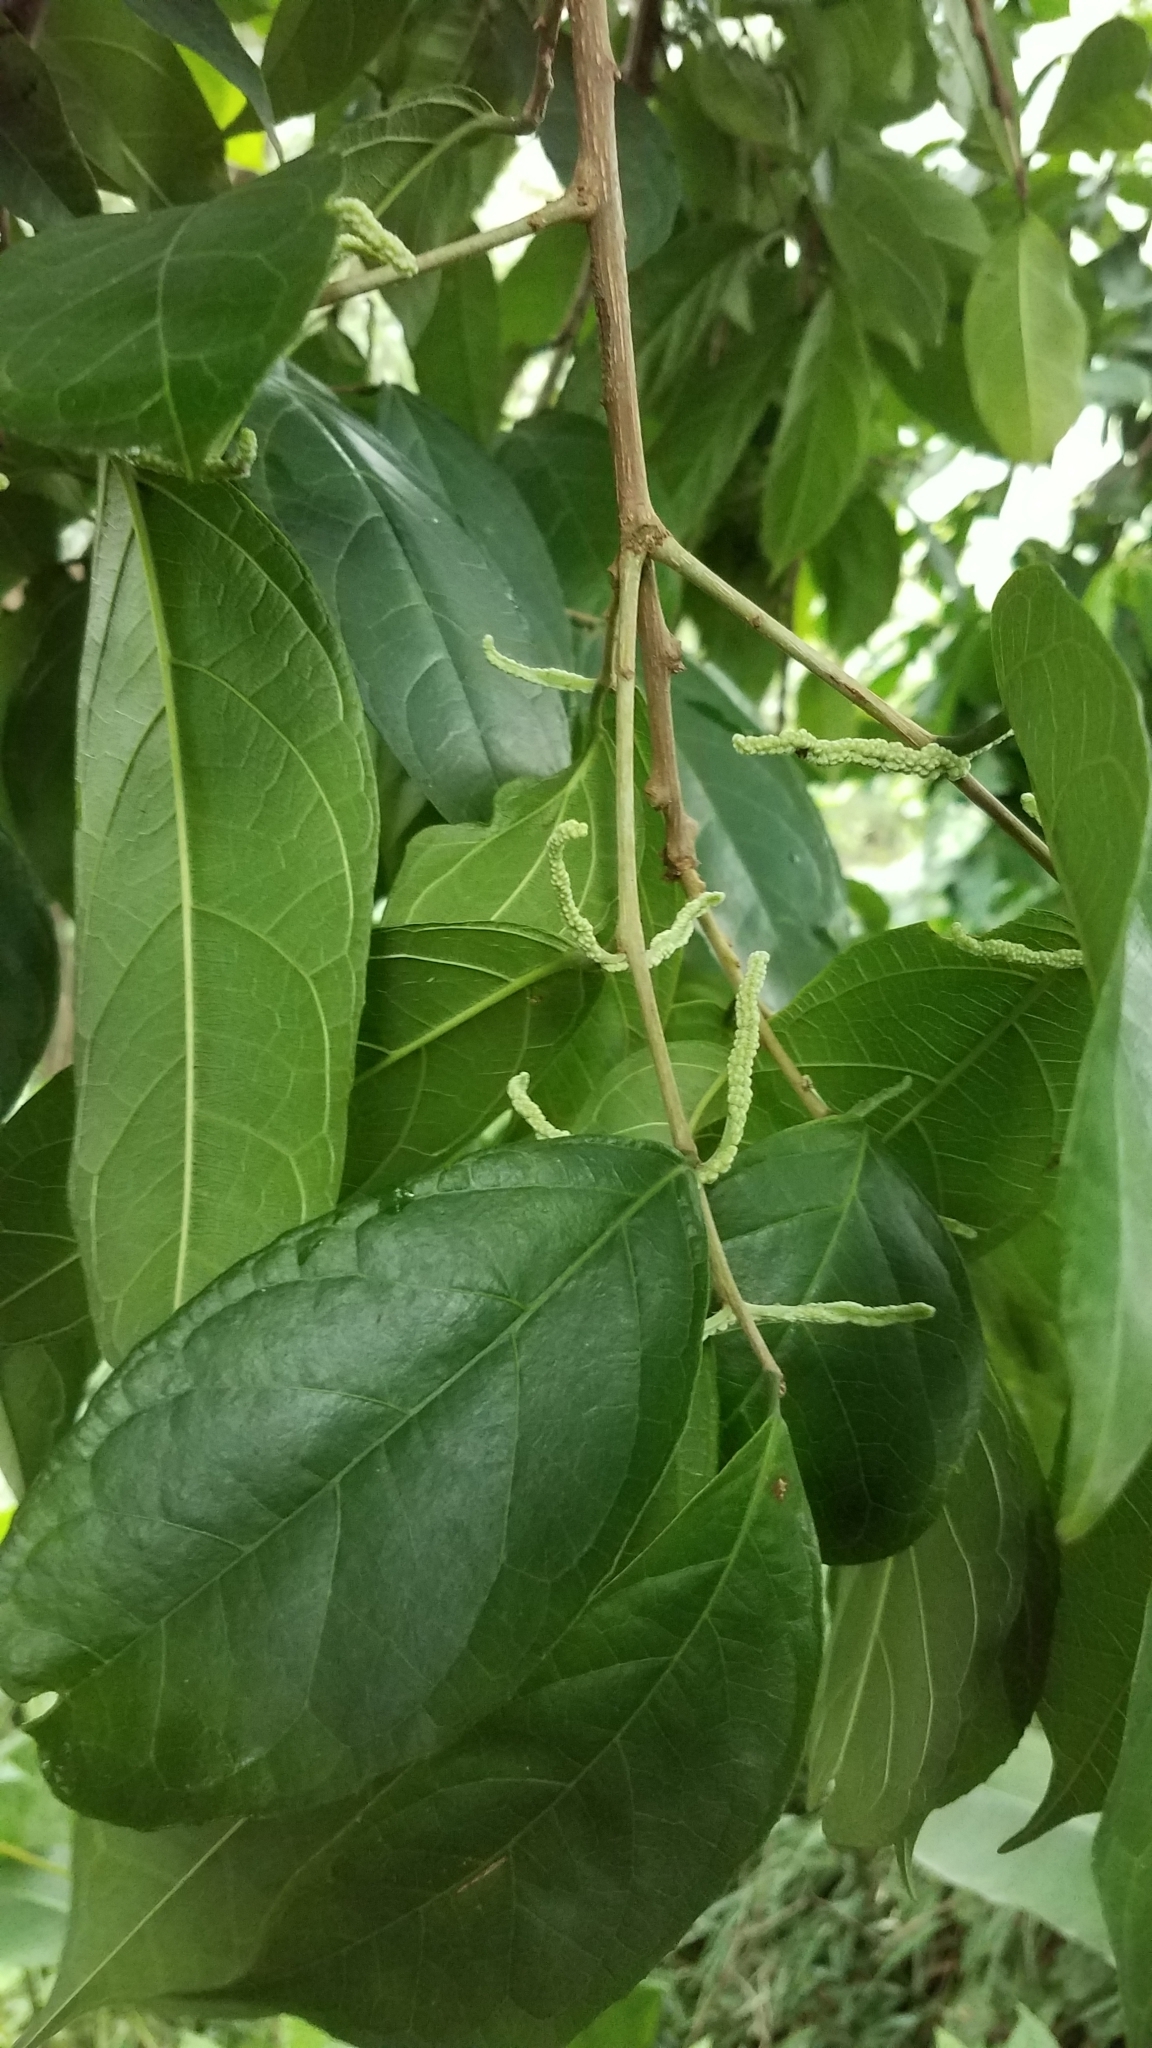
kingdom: Plantae
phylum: Tracheophyta
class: Magnoliopsida
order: Rosales
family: Moraceae
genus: Trophis
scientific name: Trophis racemosa
